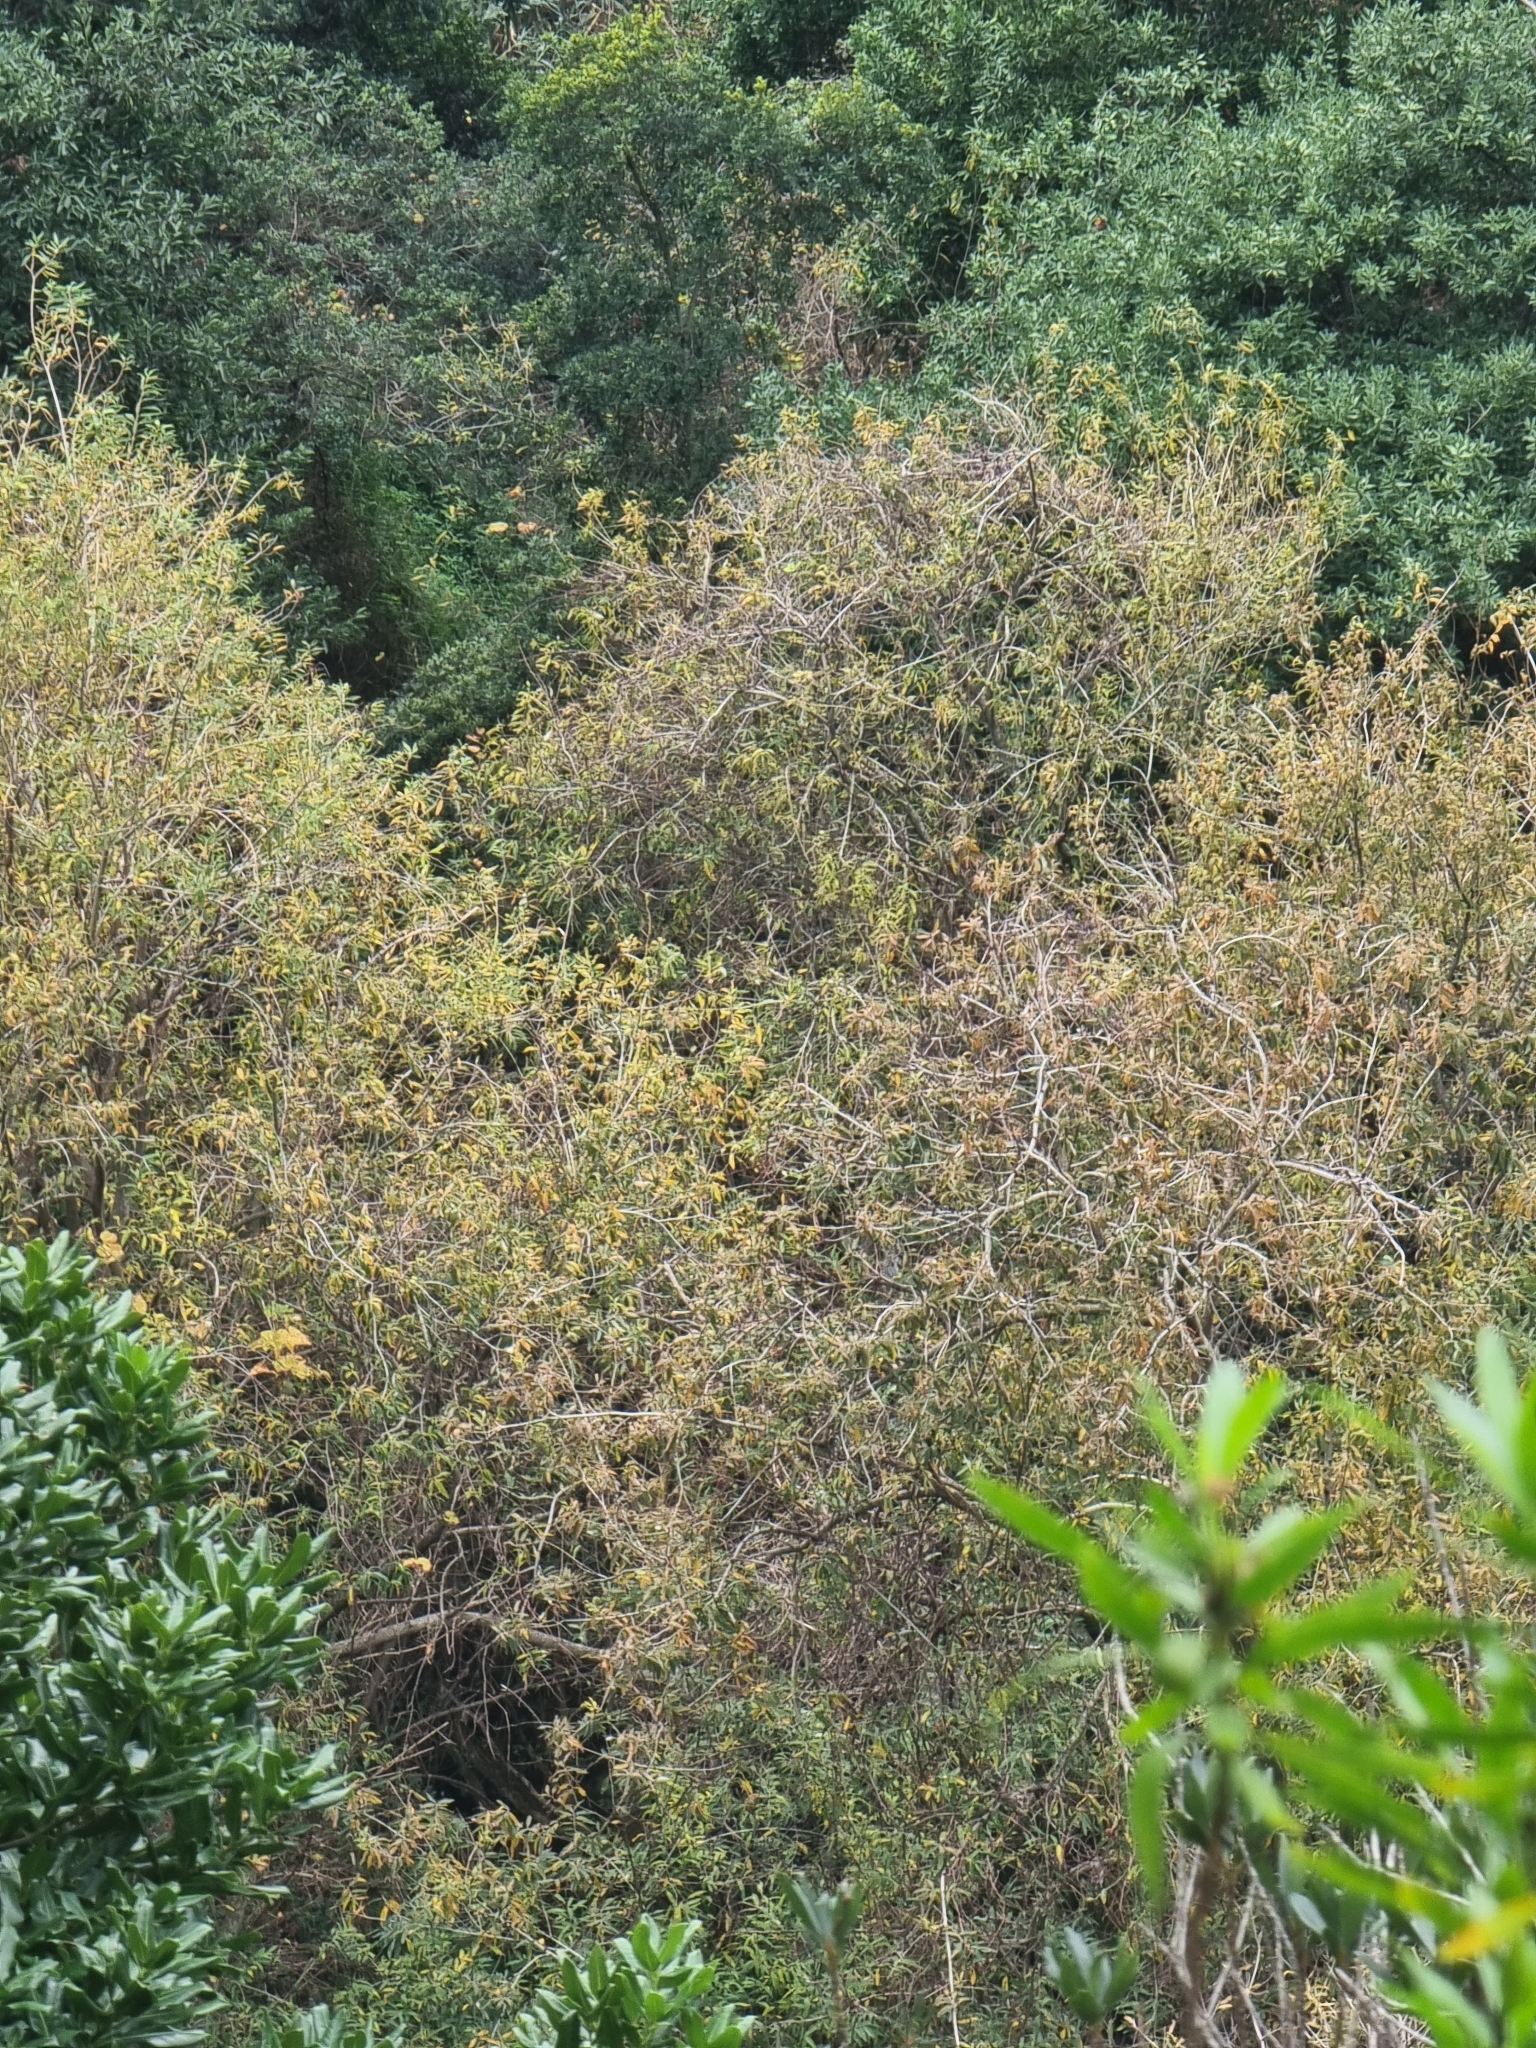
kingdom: Plantae
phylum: Tracheophyta
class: Magnoliopsida
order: Malpighiales
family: Salicaceae
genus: Salix
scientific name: Salix canariensis
